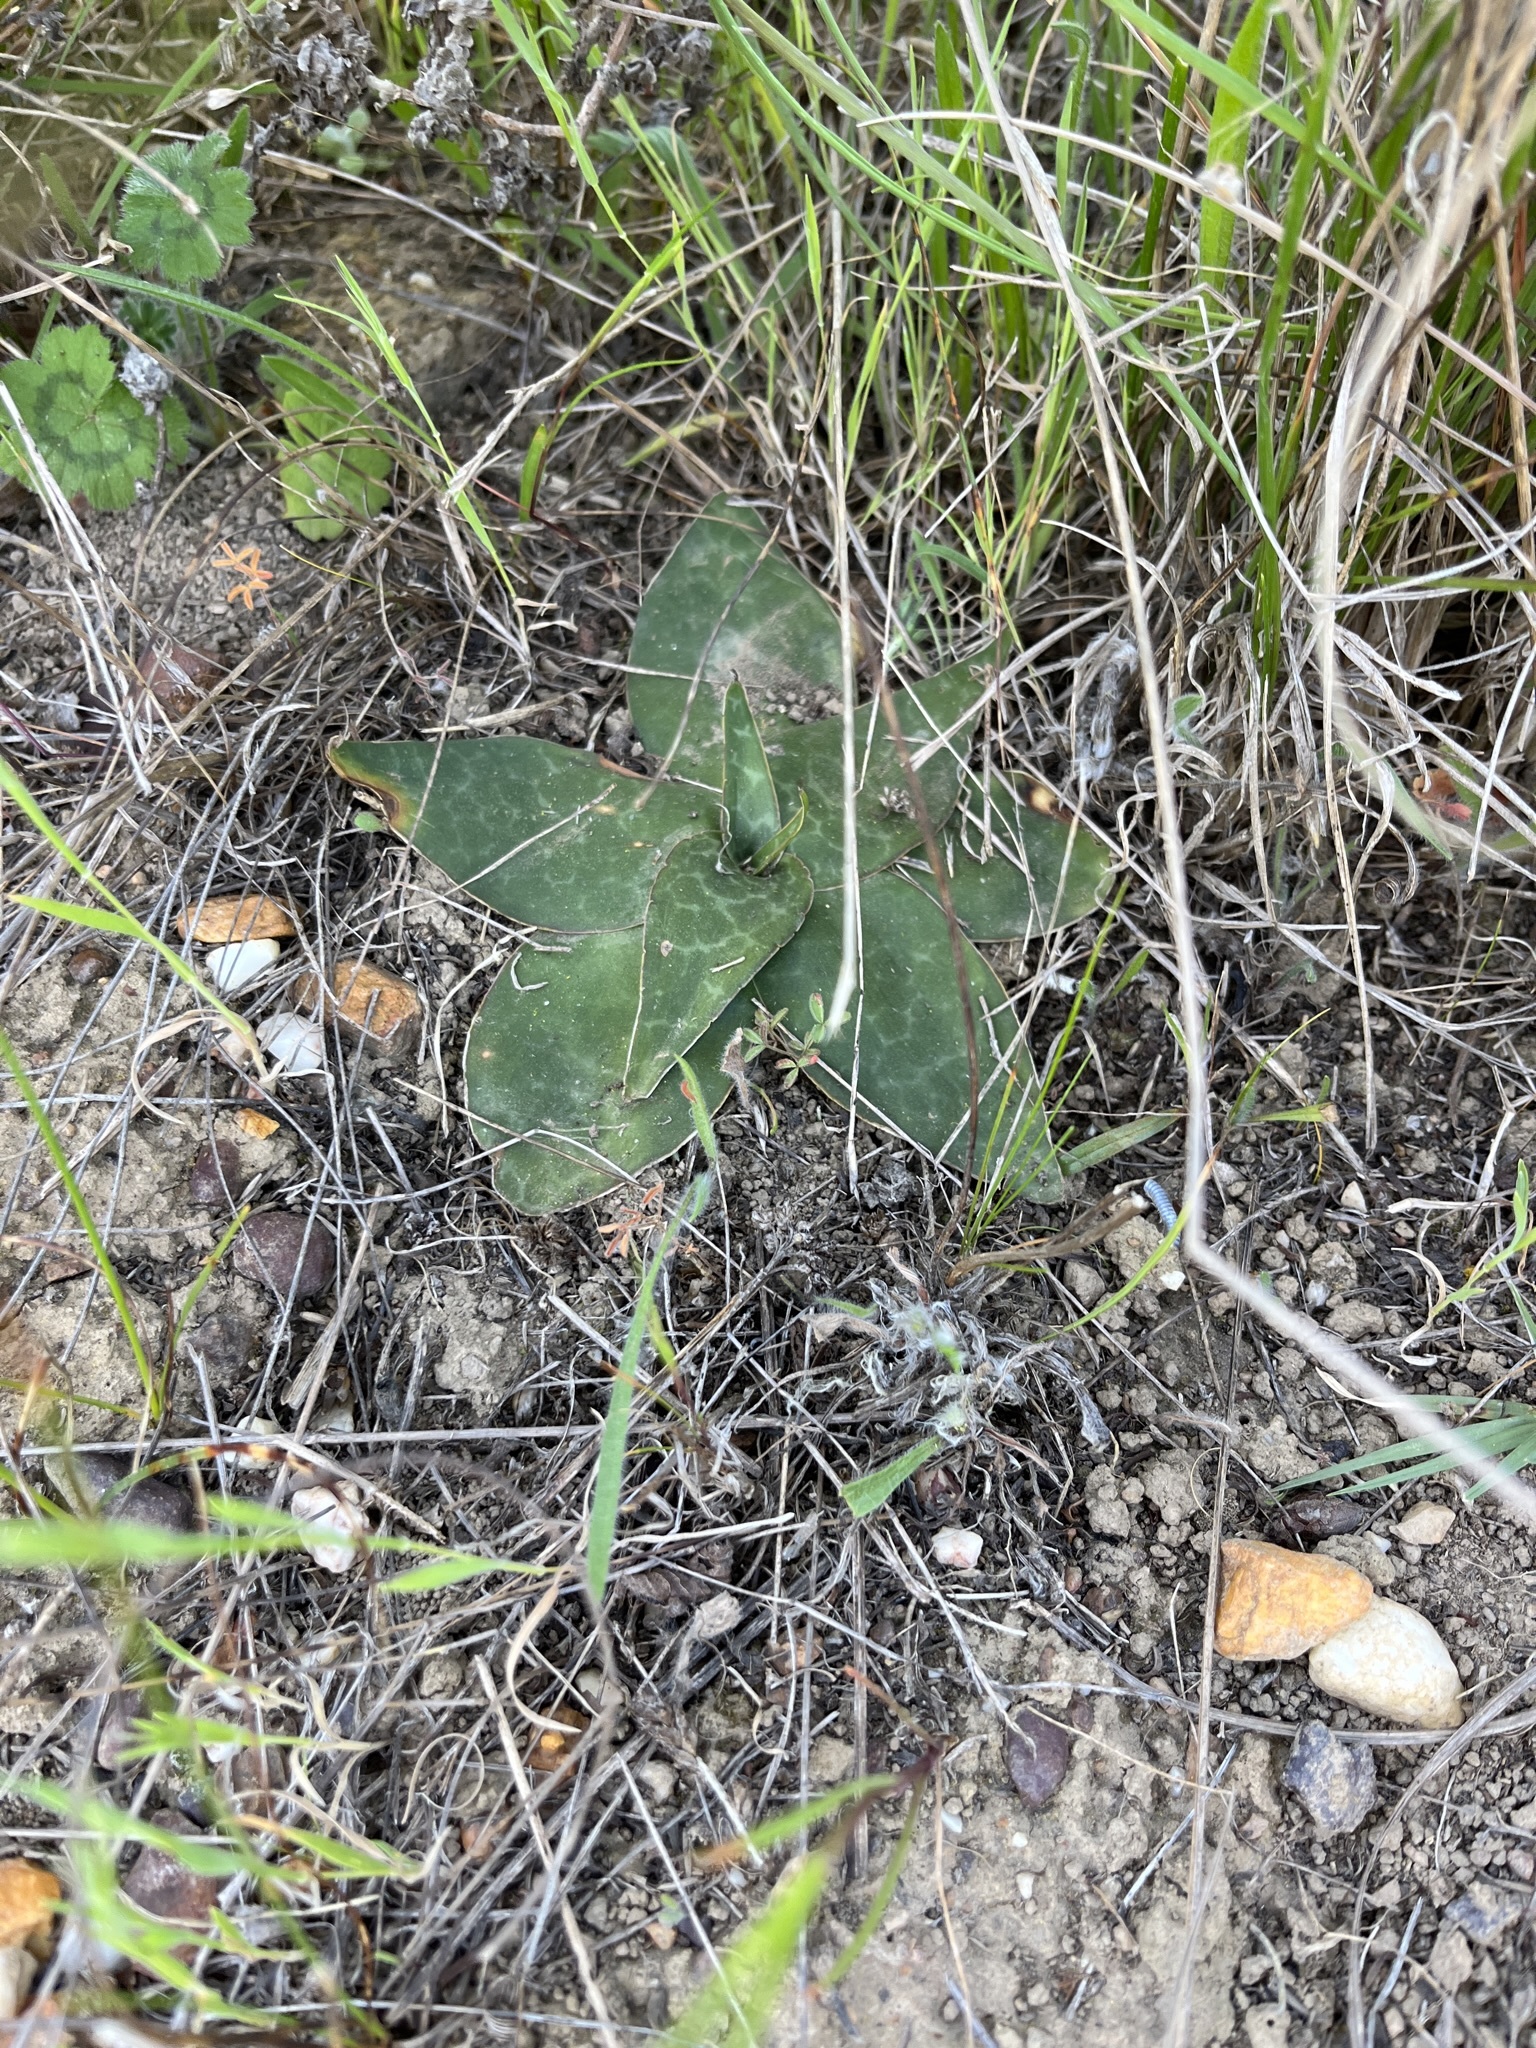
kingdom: Plantae
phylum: Tracheophyta
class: Liliopsida
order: Asparagales
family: Asparagaceae
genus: Ledebouria
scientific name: Ledebouria revoluta
